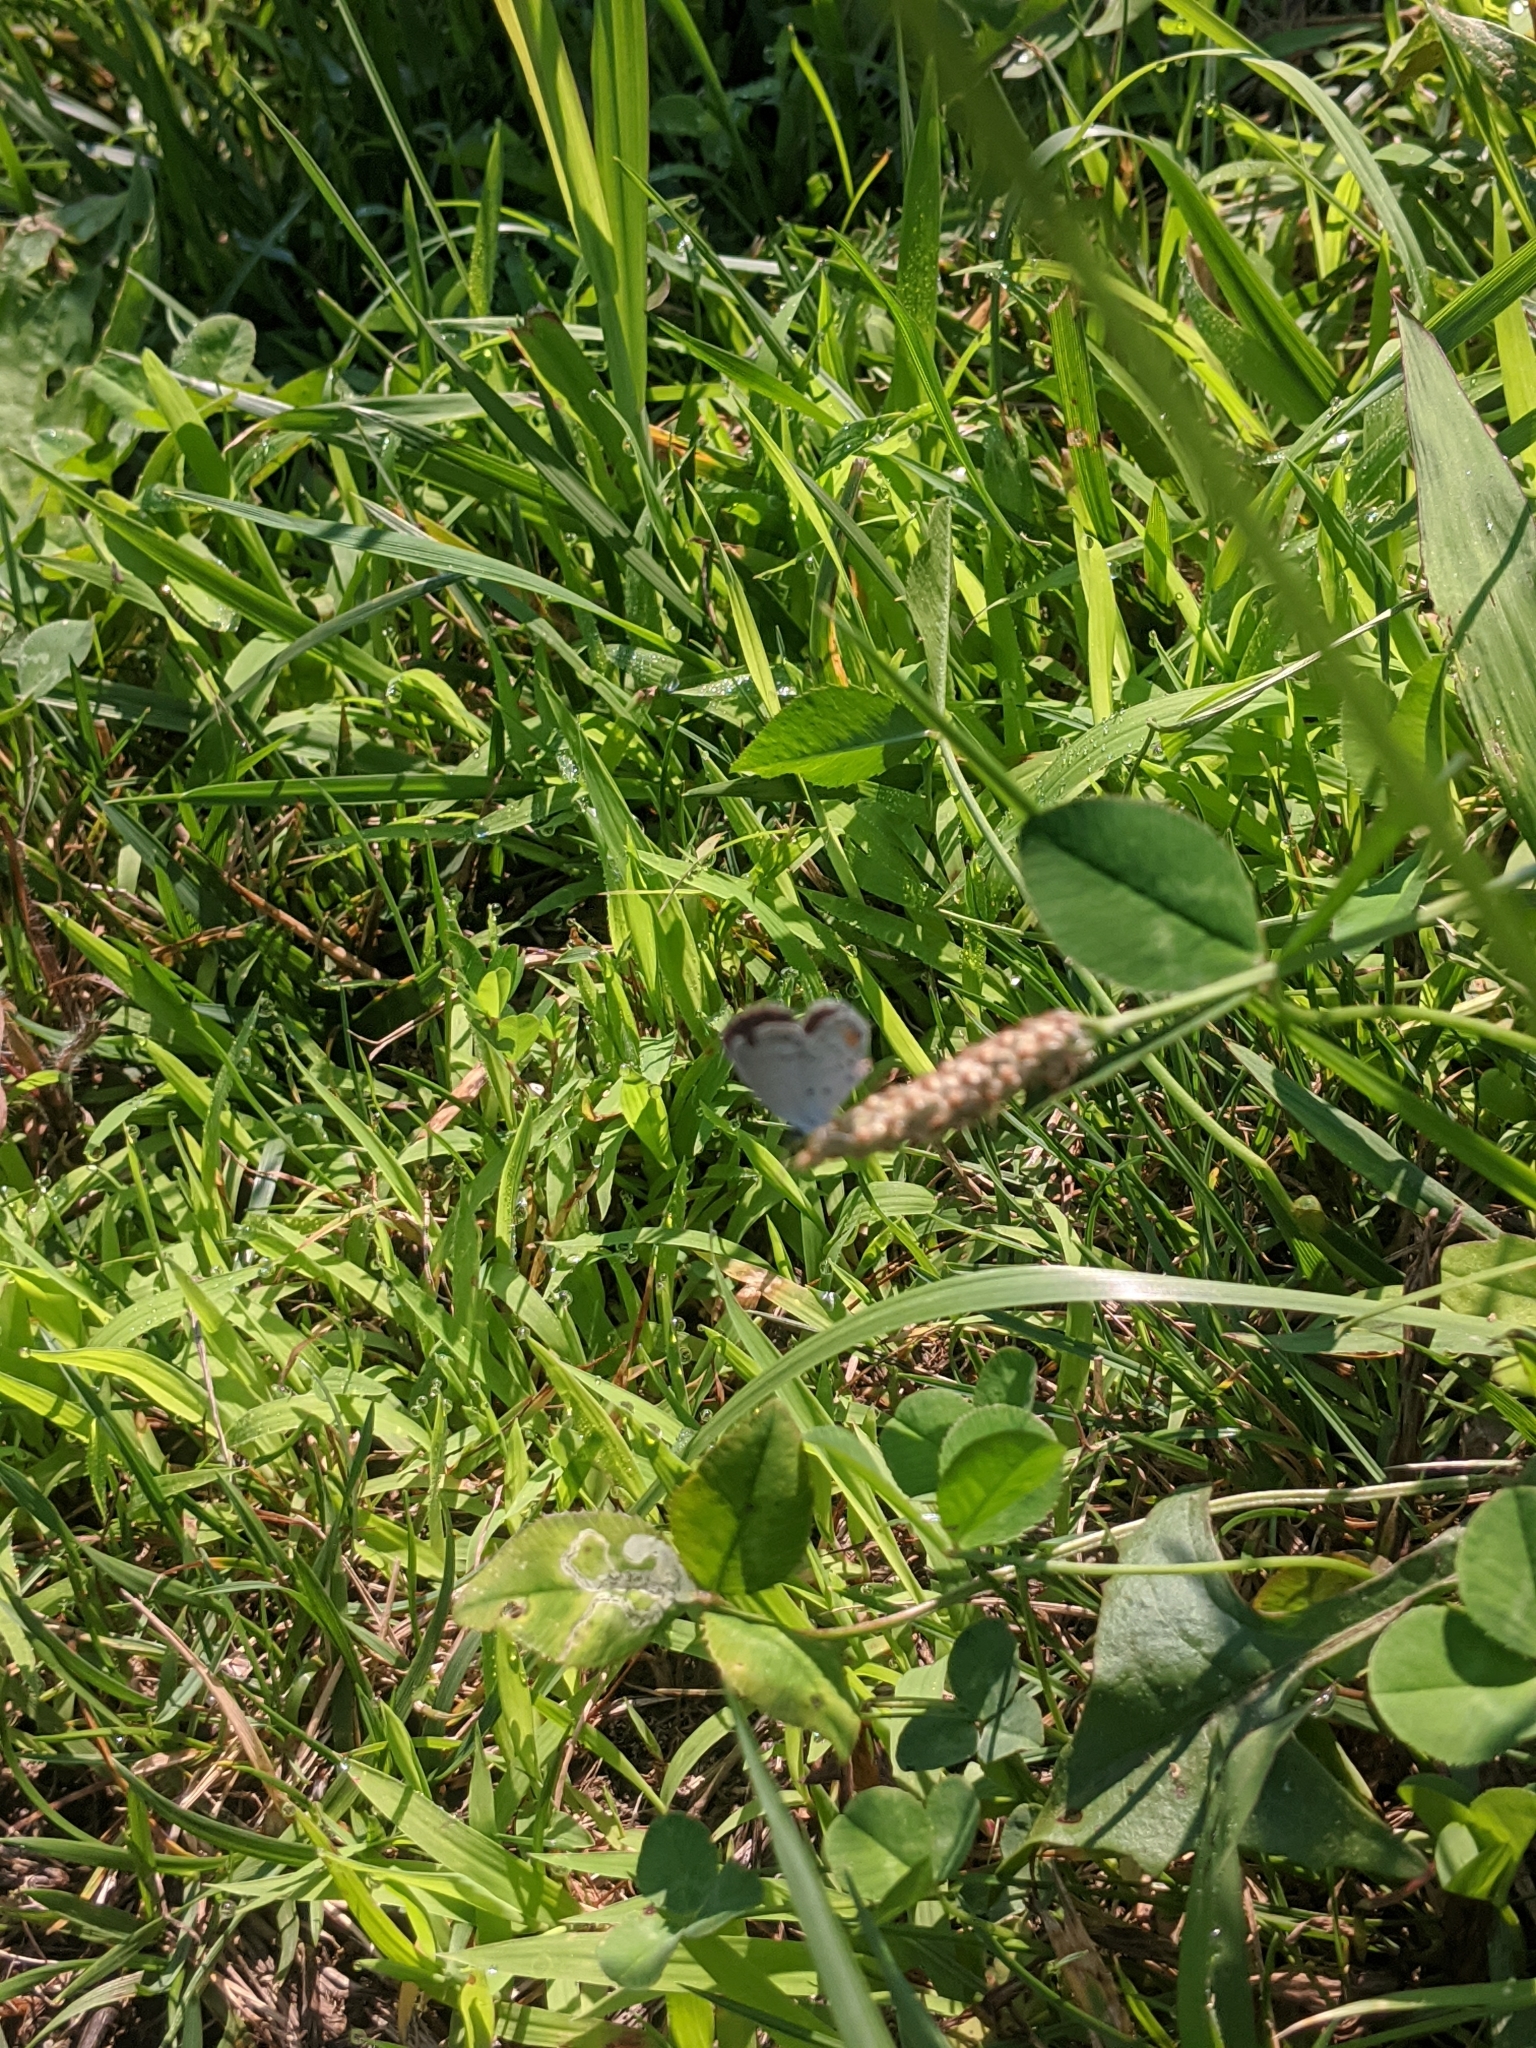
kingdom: Animalia
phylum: Arthropoda
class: Insecta
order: Lepidoptera
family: Lycaenidae
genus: Elkalyce
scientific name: Elkalyce comyntas
